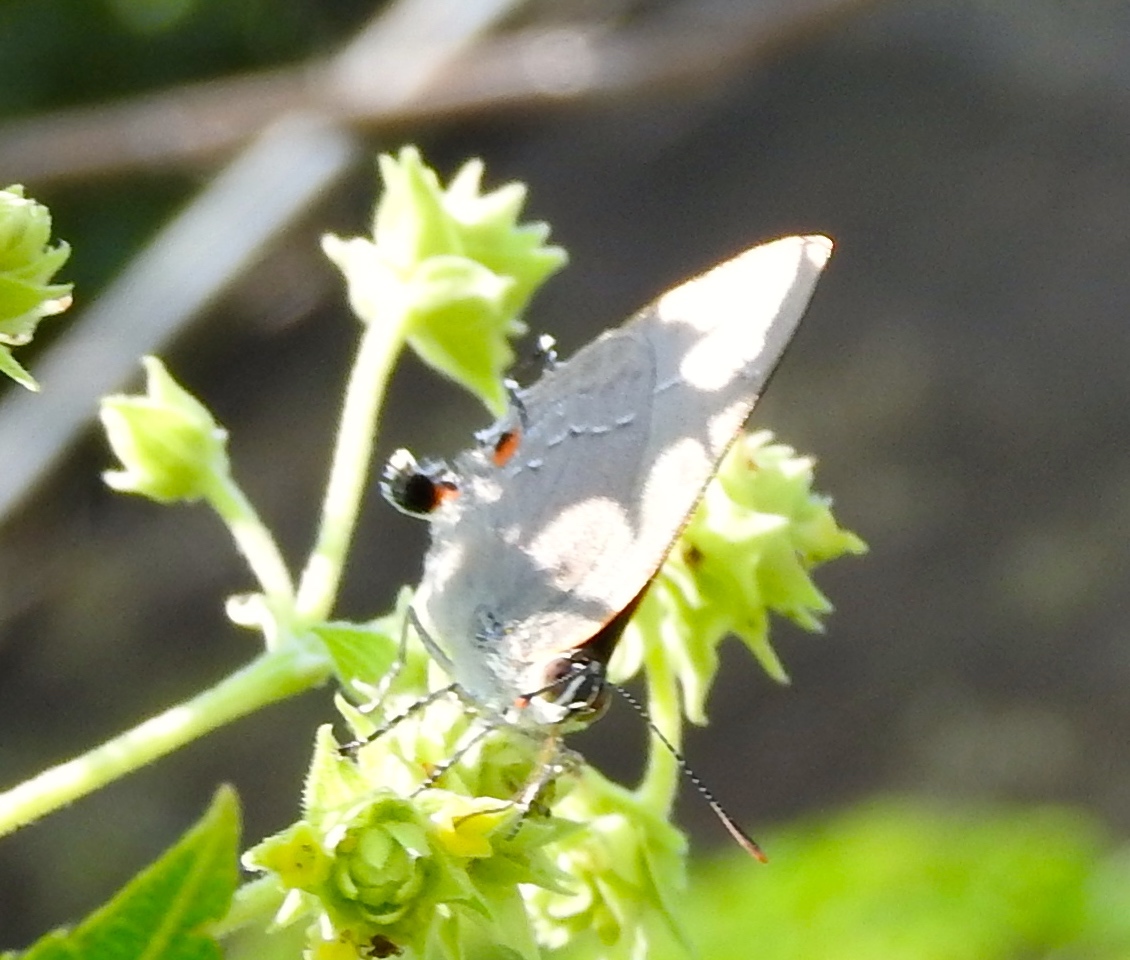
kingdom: Animalia
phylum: Arthropoda
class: Insecta
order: Lepidoptera
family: Lycaenidae
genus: Thecla
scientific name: Thecla marius
